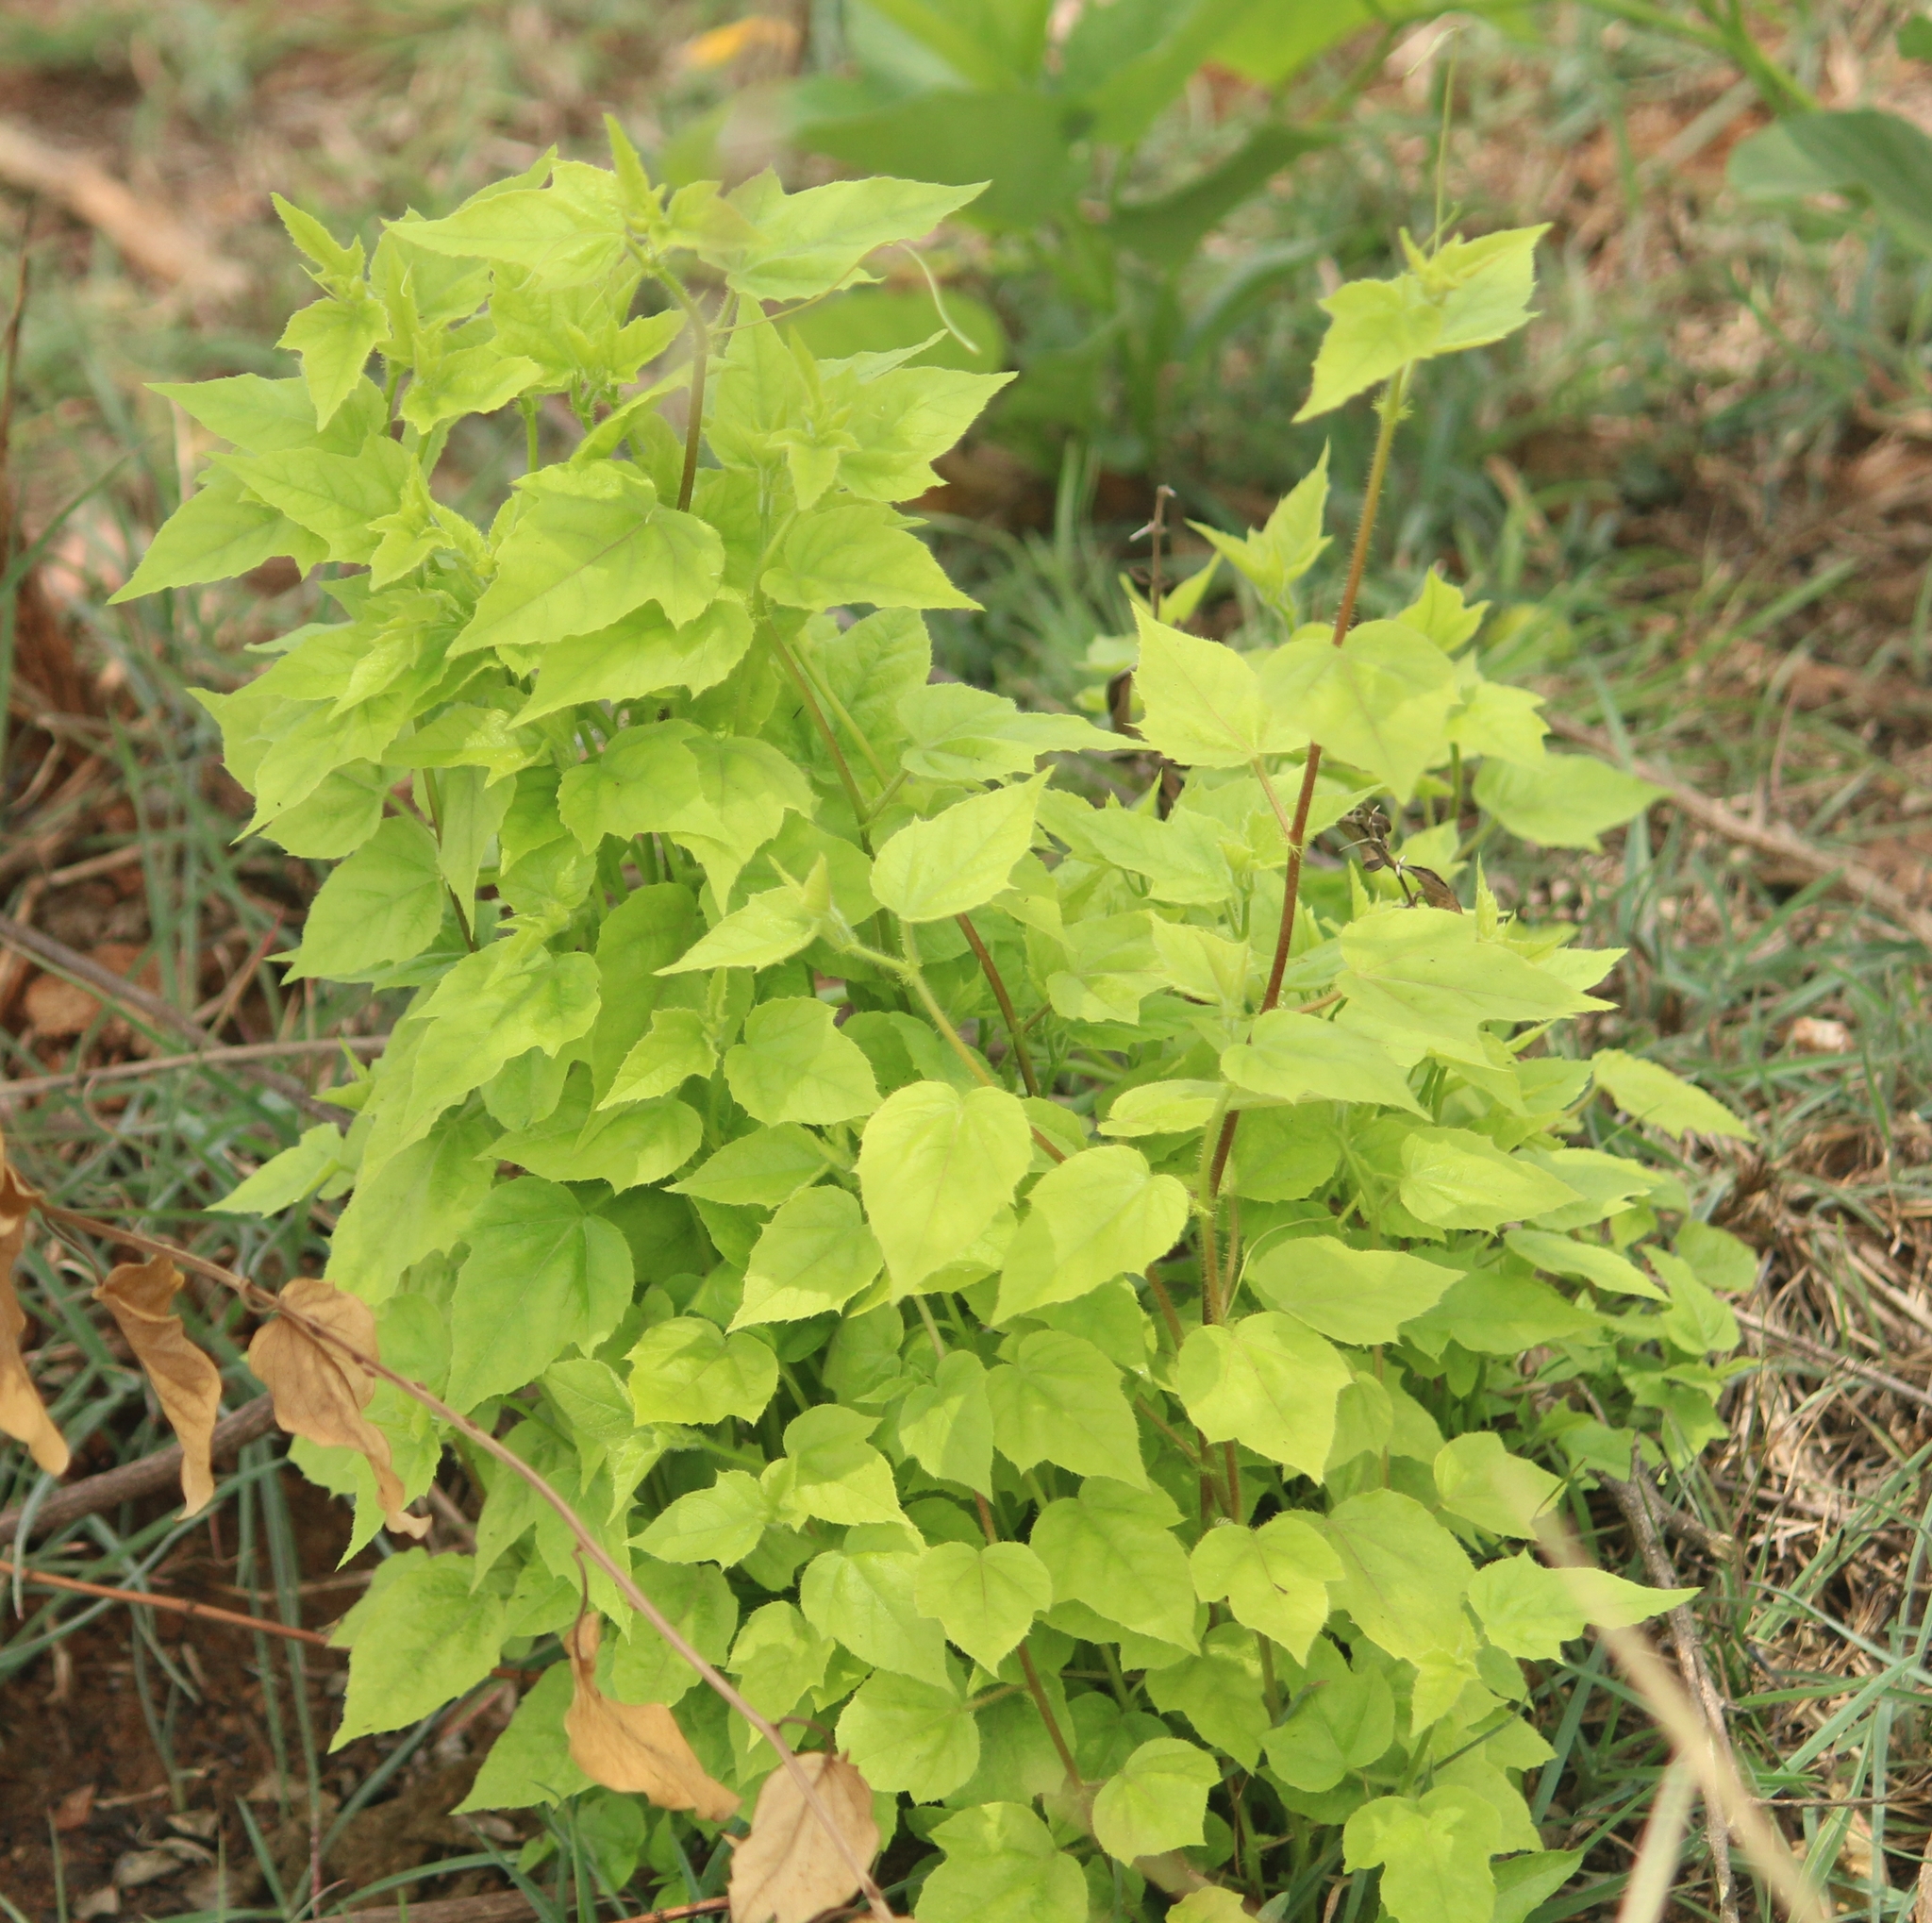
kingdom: Plantae
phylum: Tracheophyta
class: Magnoliopsida
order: Malpighiales
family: Passifloraceae
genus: Passiflora
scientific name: Passiflora foetida
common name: Fetid passionflower
